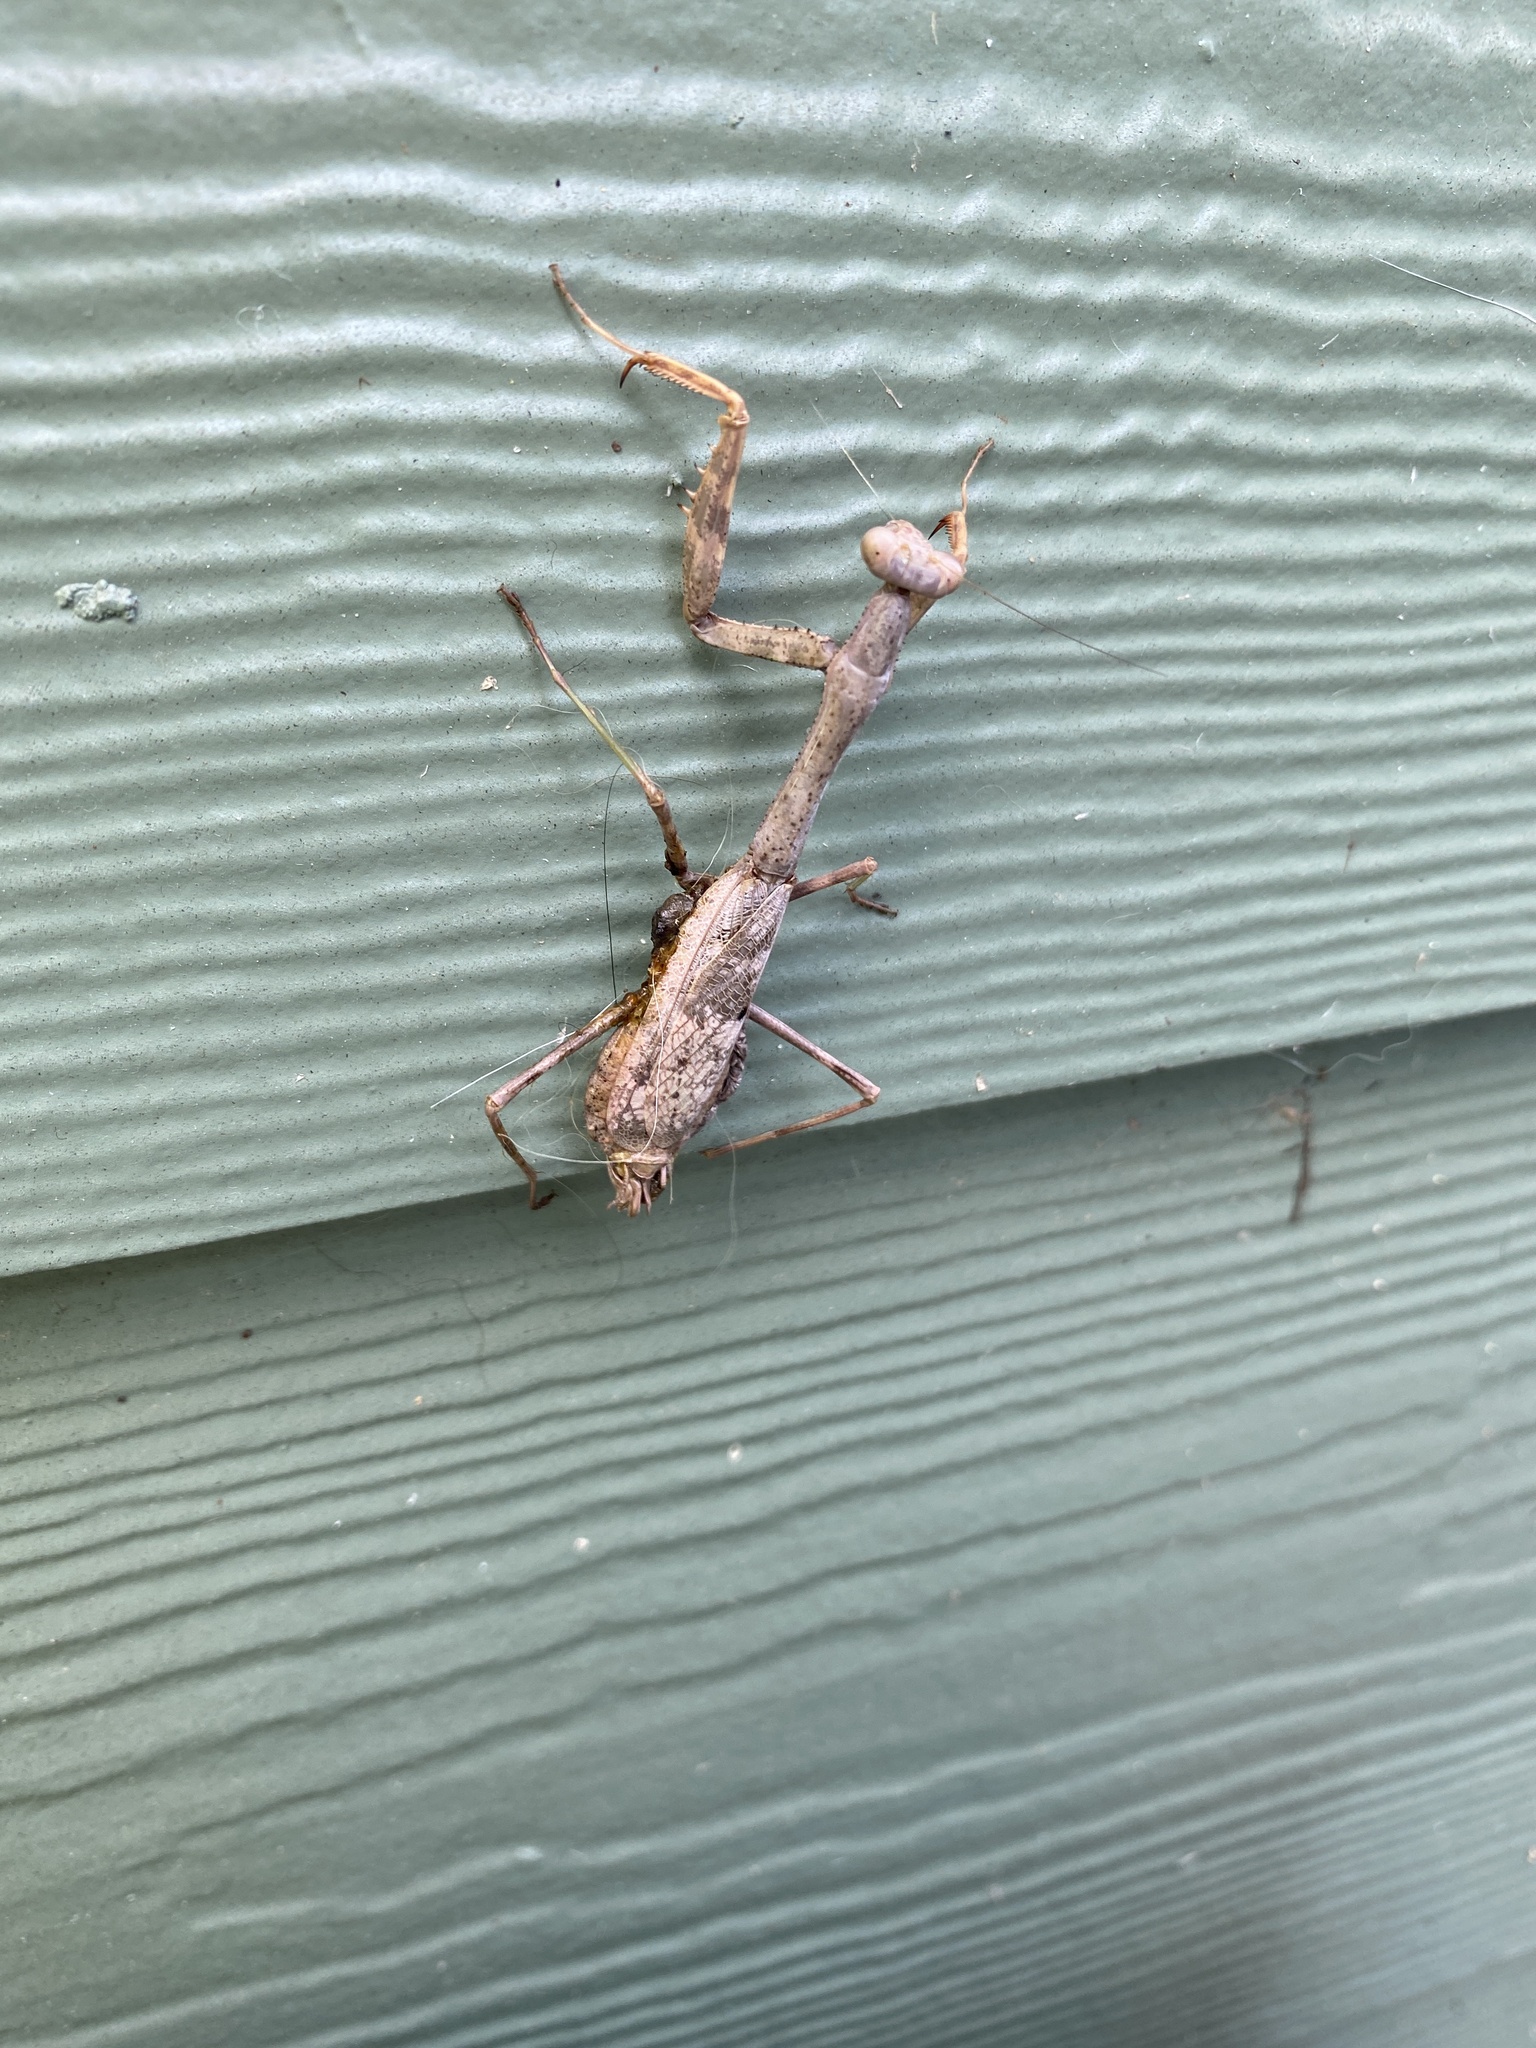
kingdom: Animalia
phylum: Arthropoda
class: Insecta
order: Mantodea
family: Mantidae
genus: Stagmomantis
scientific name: Stagmomantis carolina
